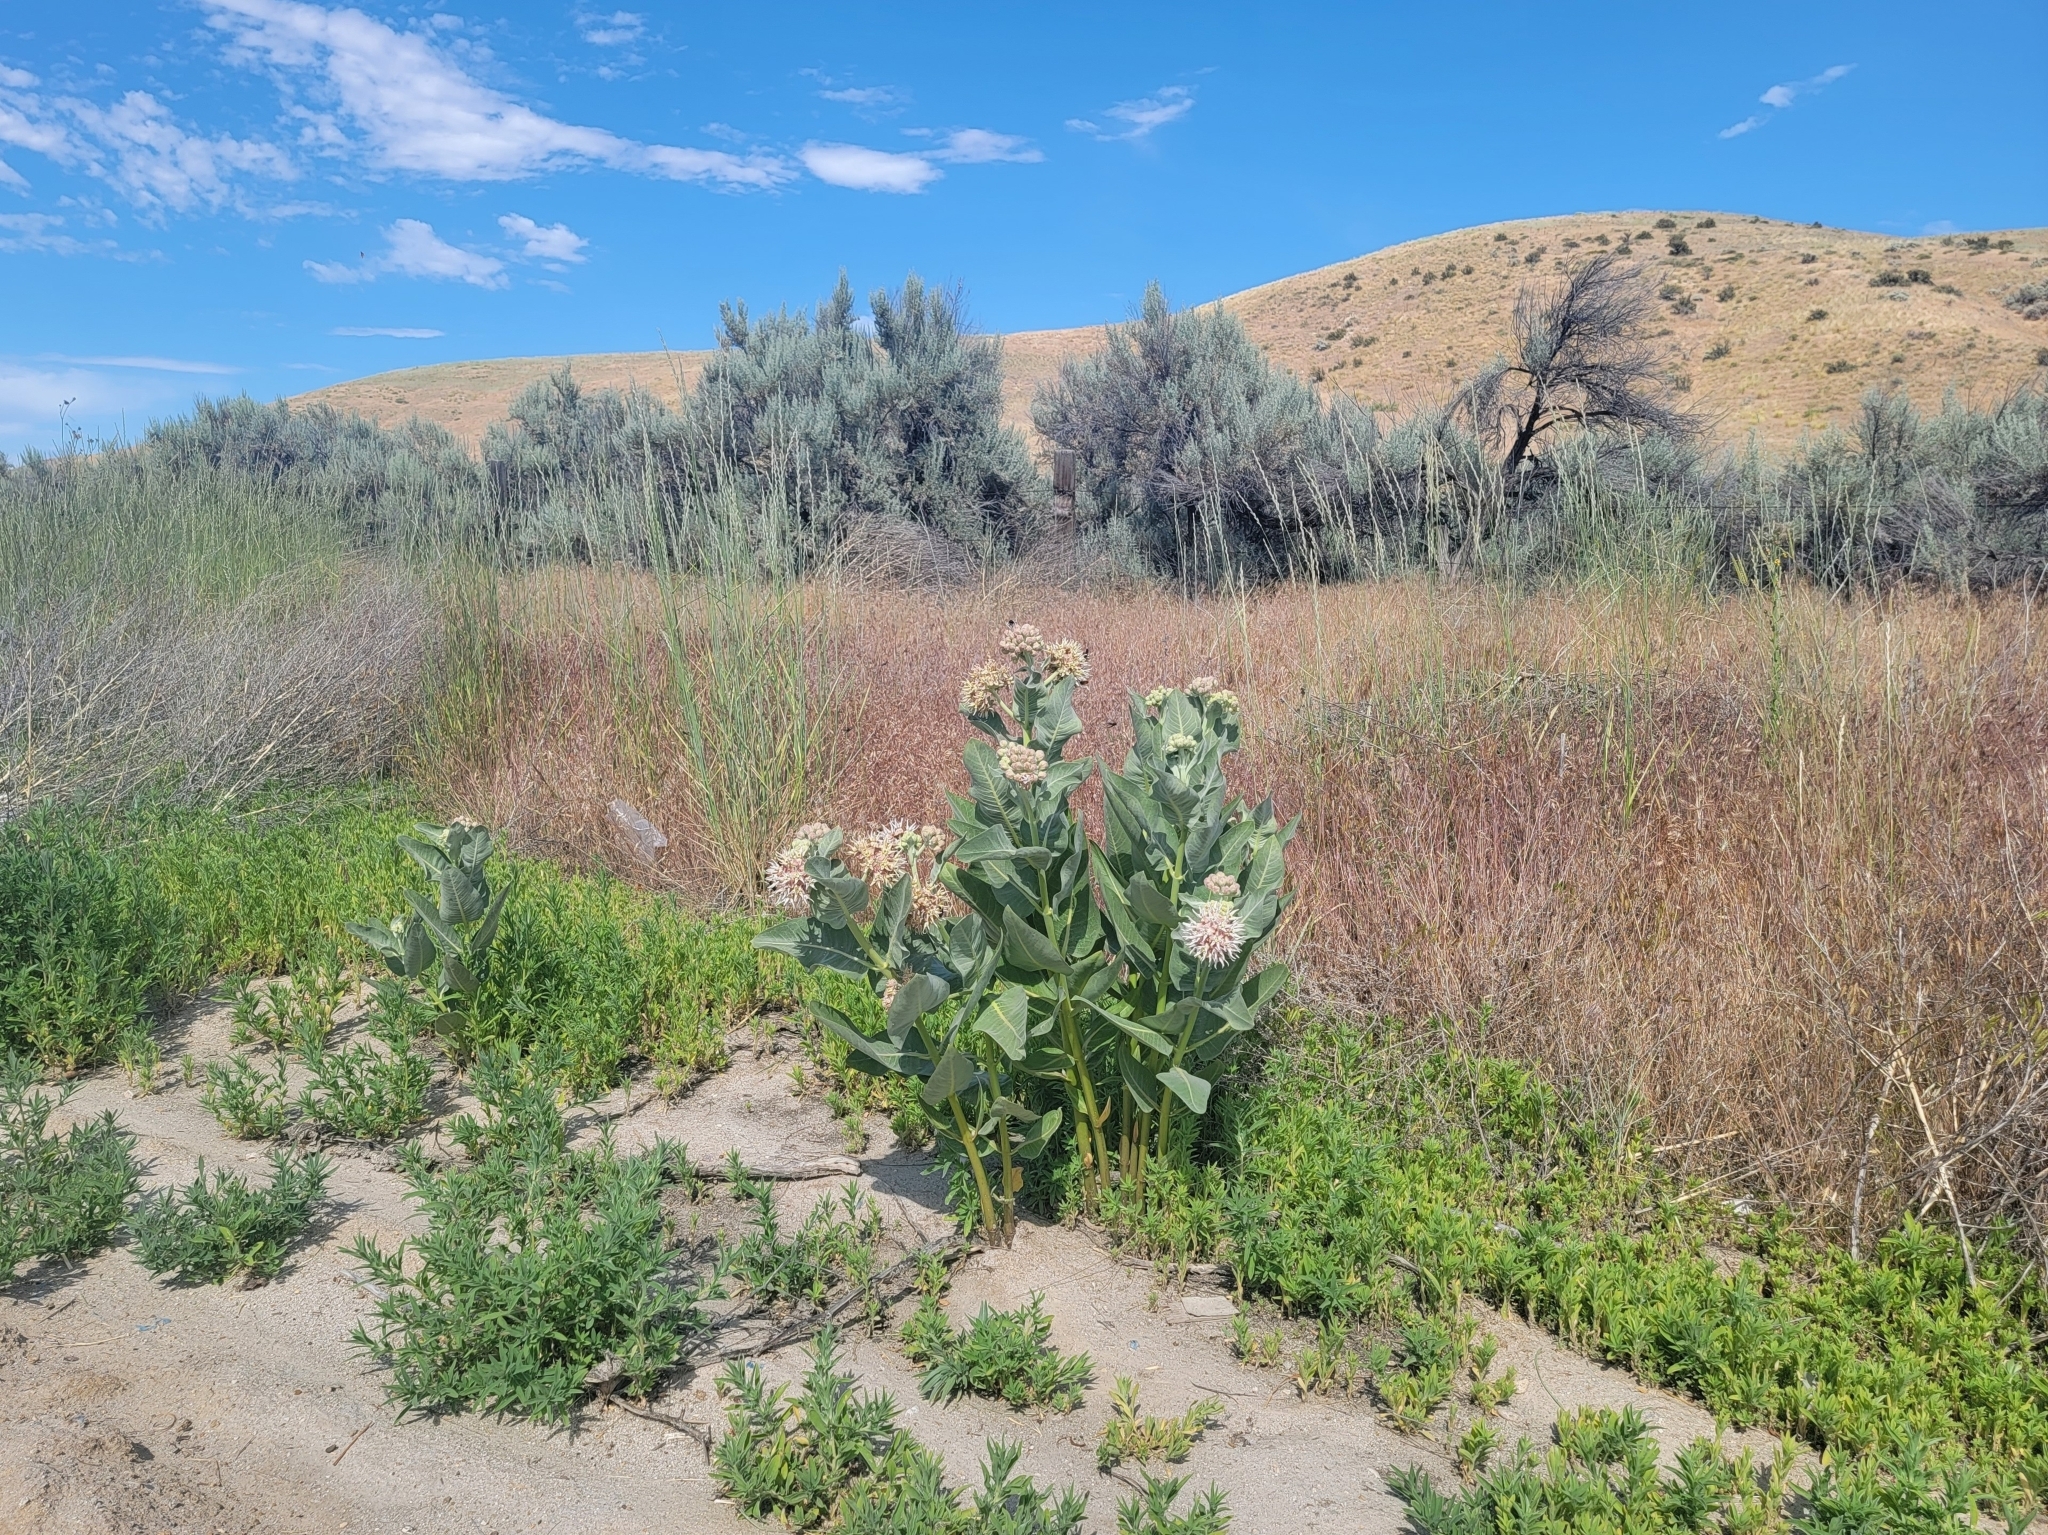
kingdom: Plantae
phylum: Tracheophyta
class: Magnoliopsida
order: Gentianales
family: Apocynaceae
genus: Asclepias
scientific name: Asclepias speciosa
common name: Showy milkweed
